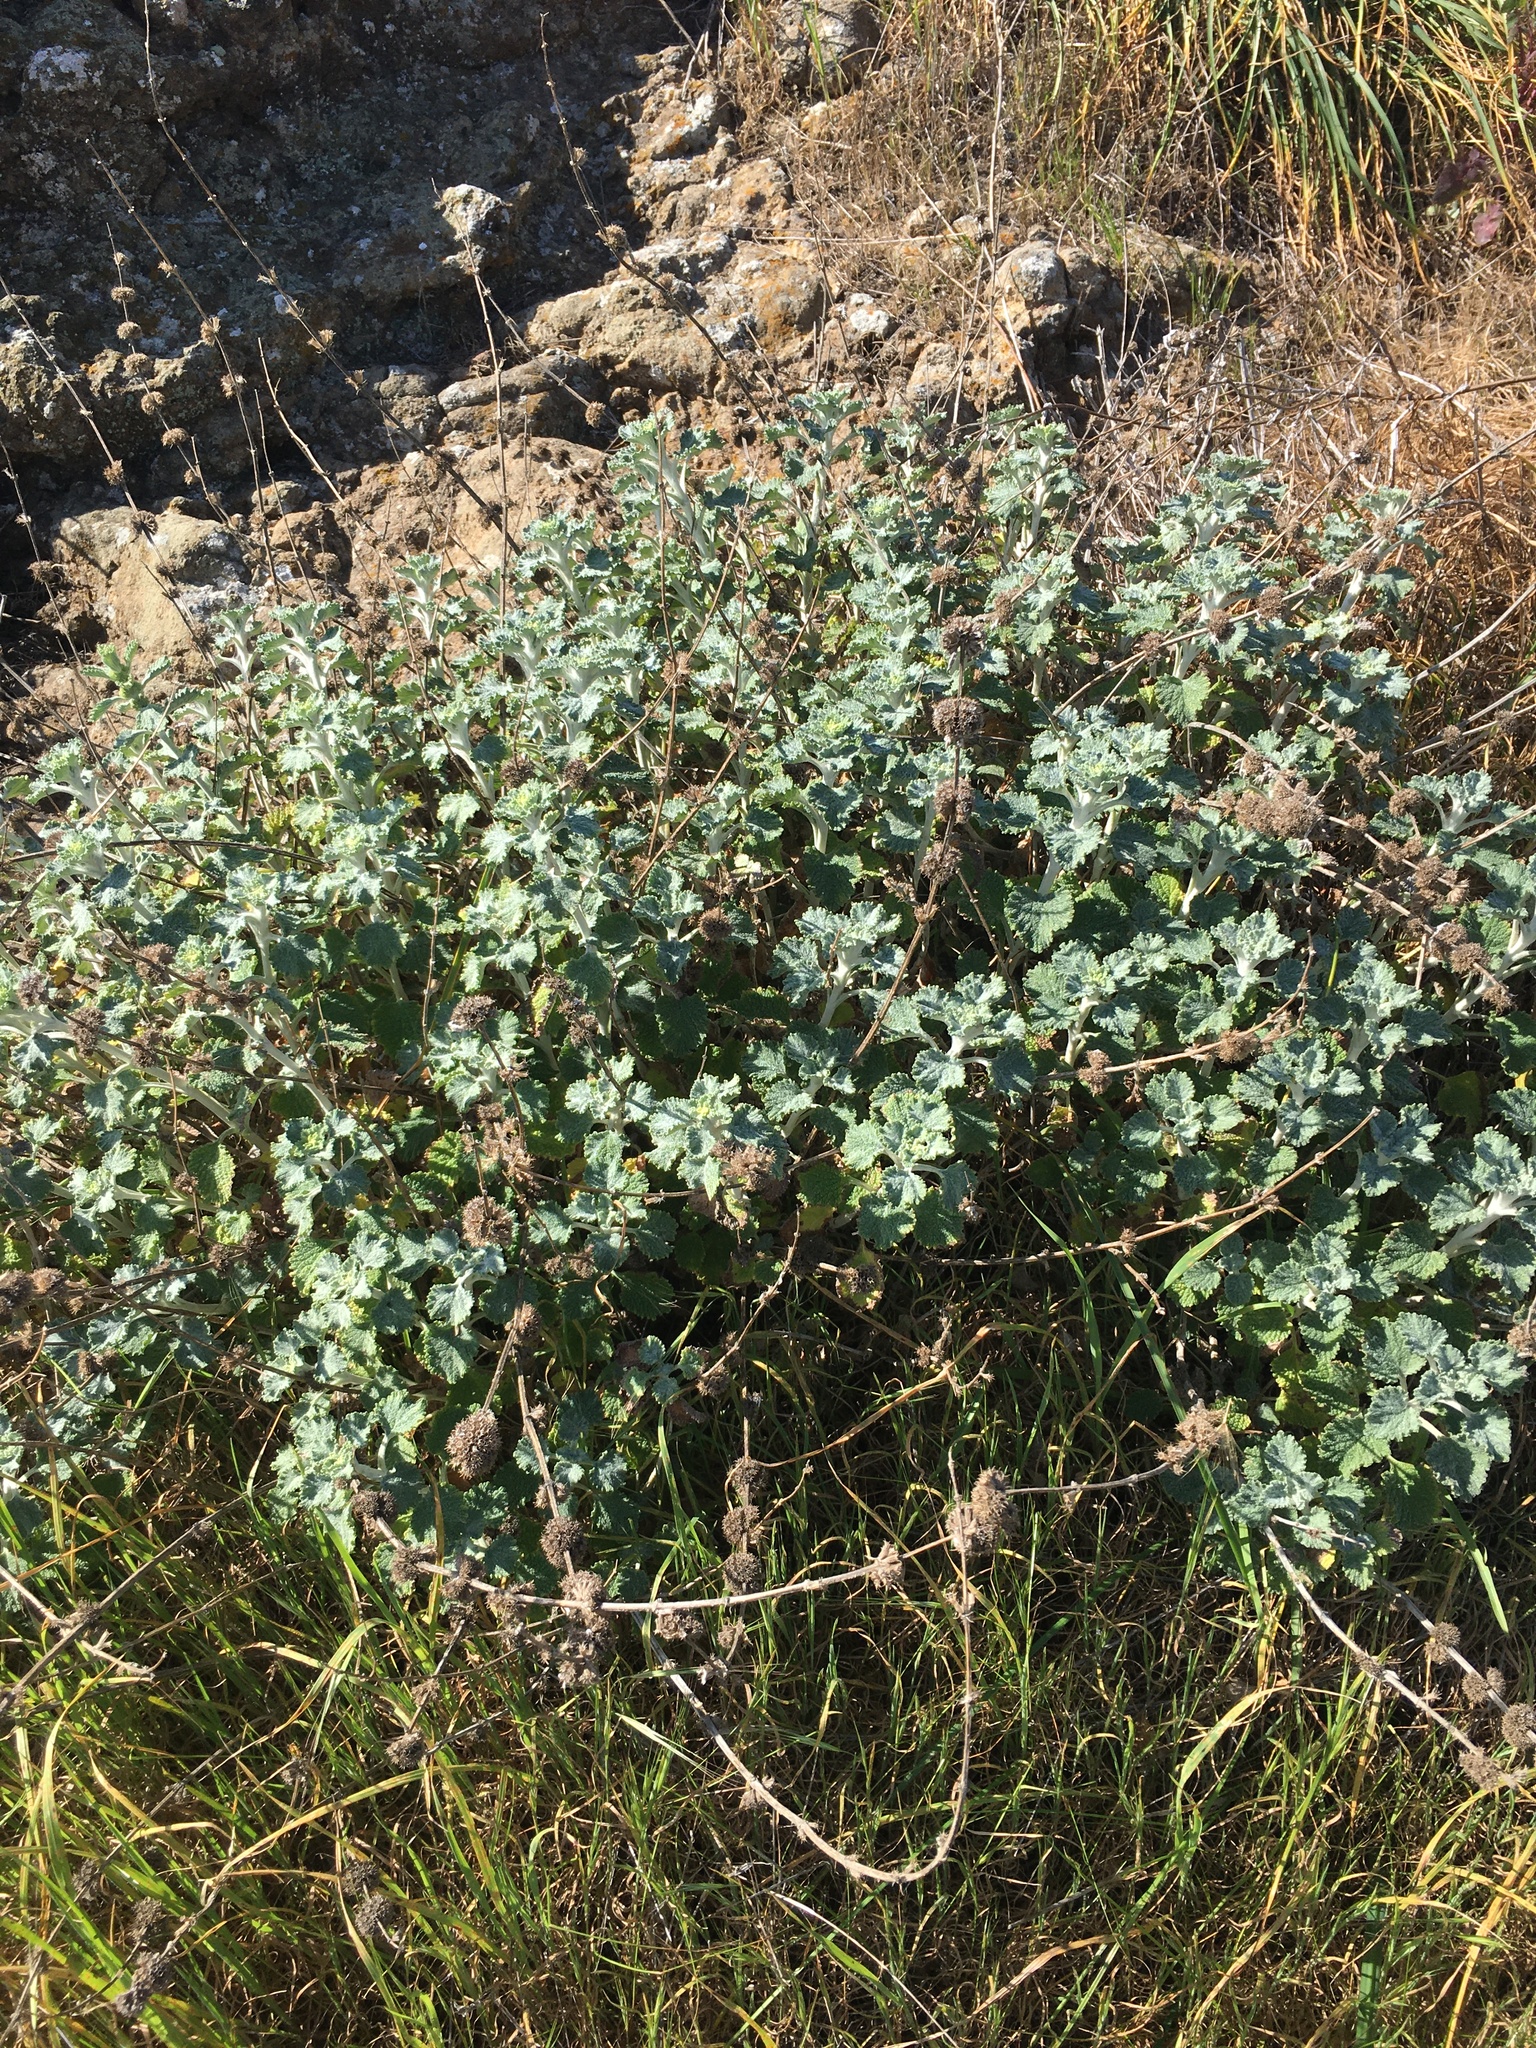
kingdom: Plantae
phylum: Tracheophyta
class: Magnoliopsida
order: Lamiales
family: Lamiaceae
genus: Marrubium
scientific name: Marrubium vulgare
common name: Horehound
